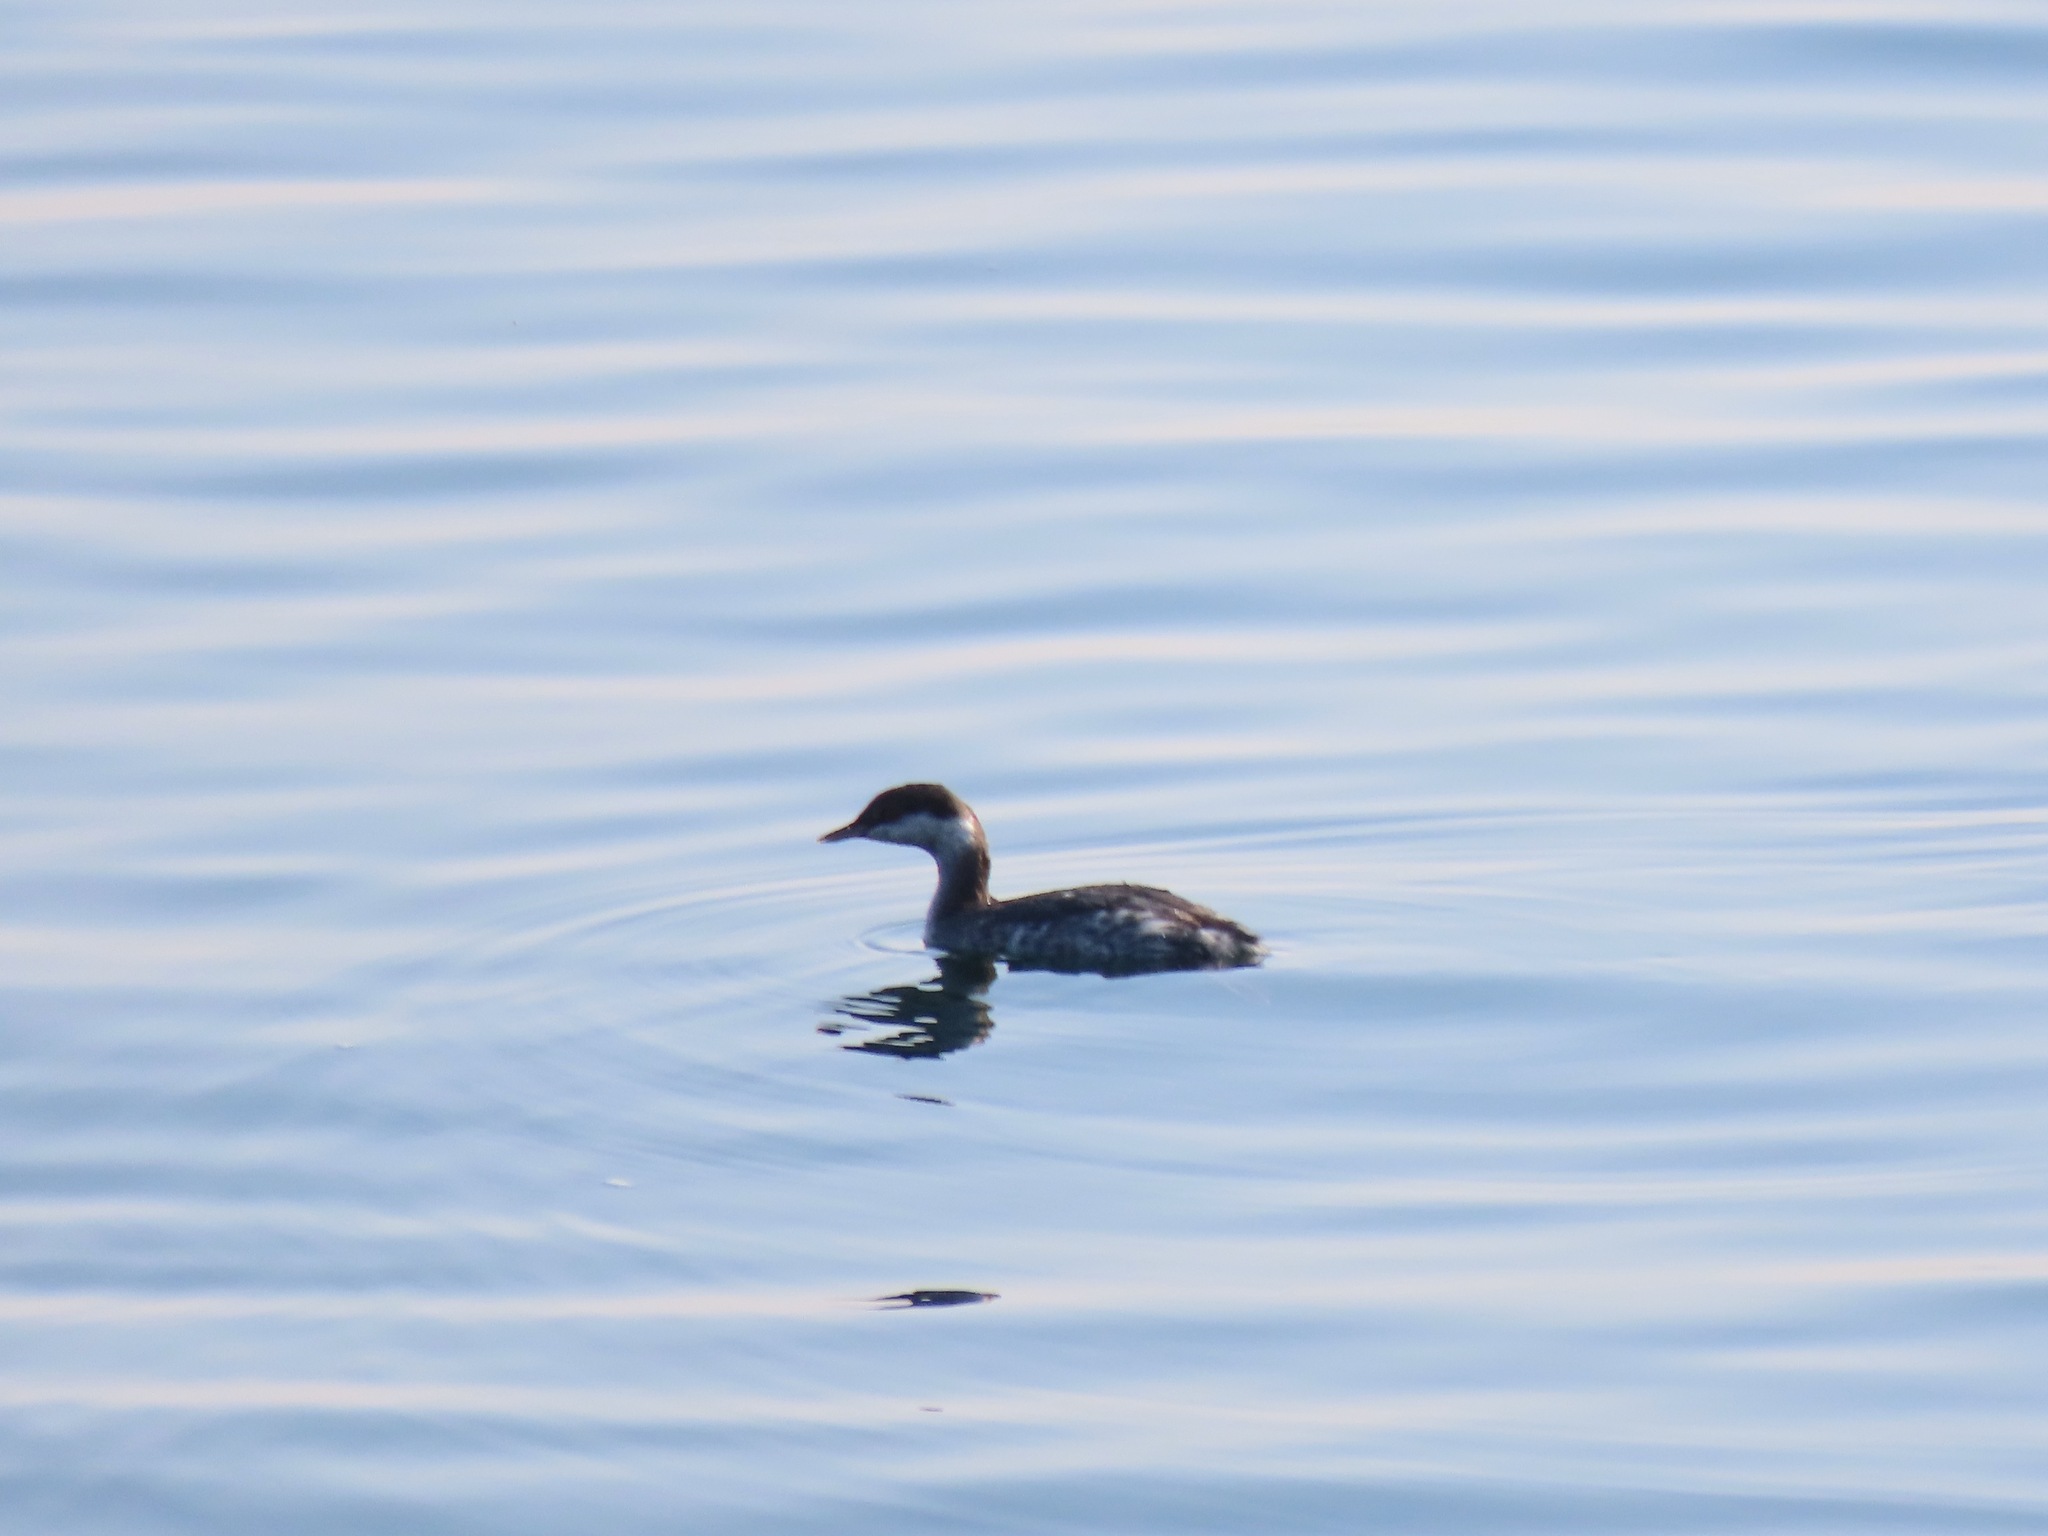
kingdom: Animalia
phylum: Chordata
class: Aves
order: Podicipediformes
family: Podicipedidae
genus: Podiceps
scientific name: Podiceps auritus
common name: Horned grebe
